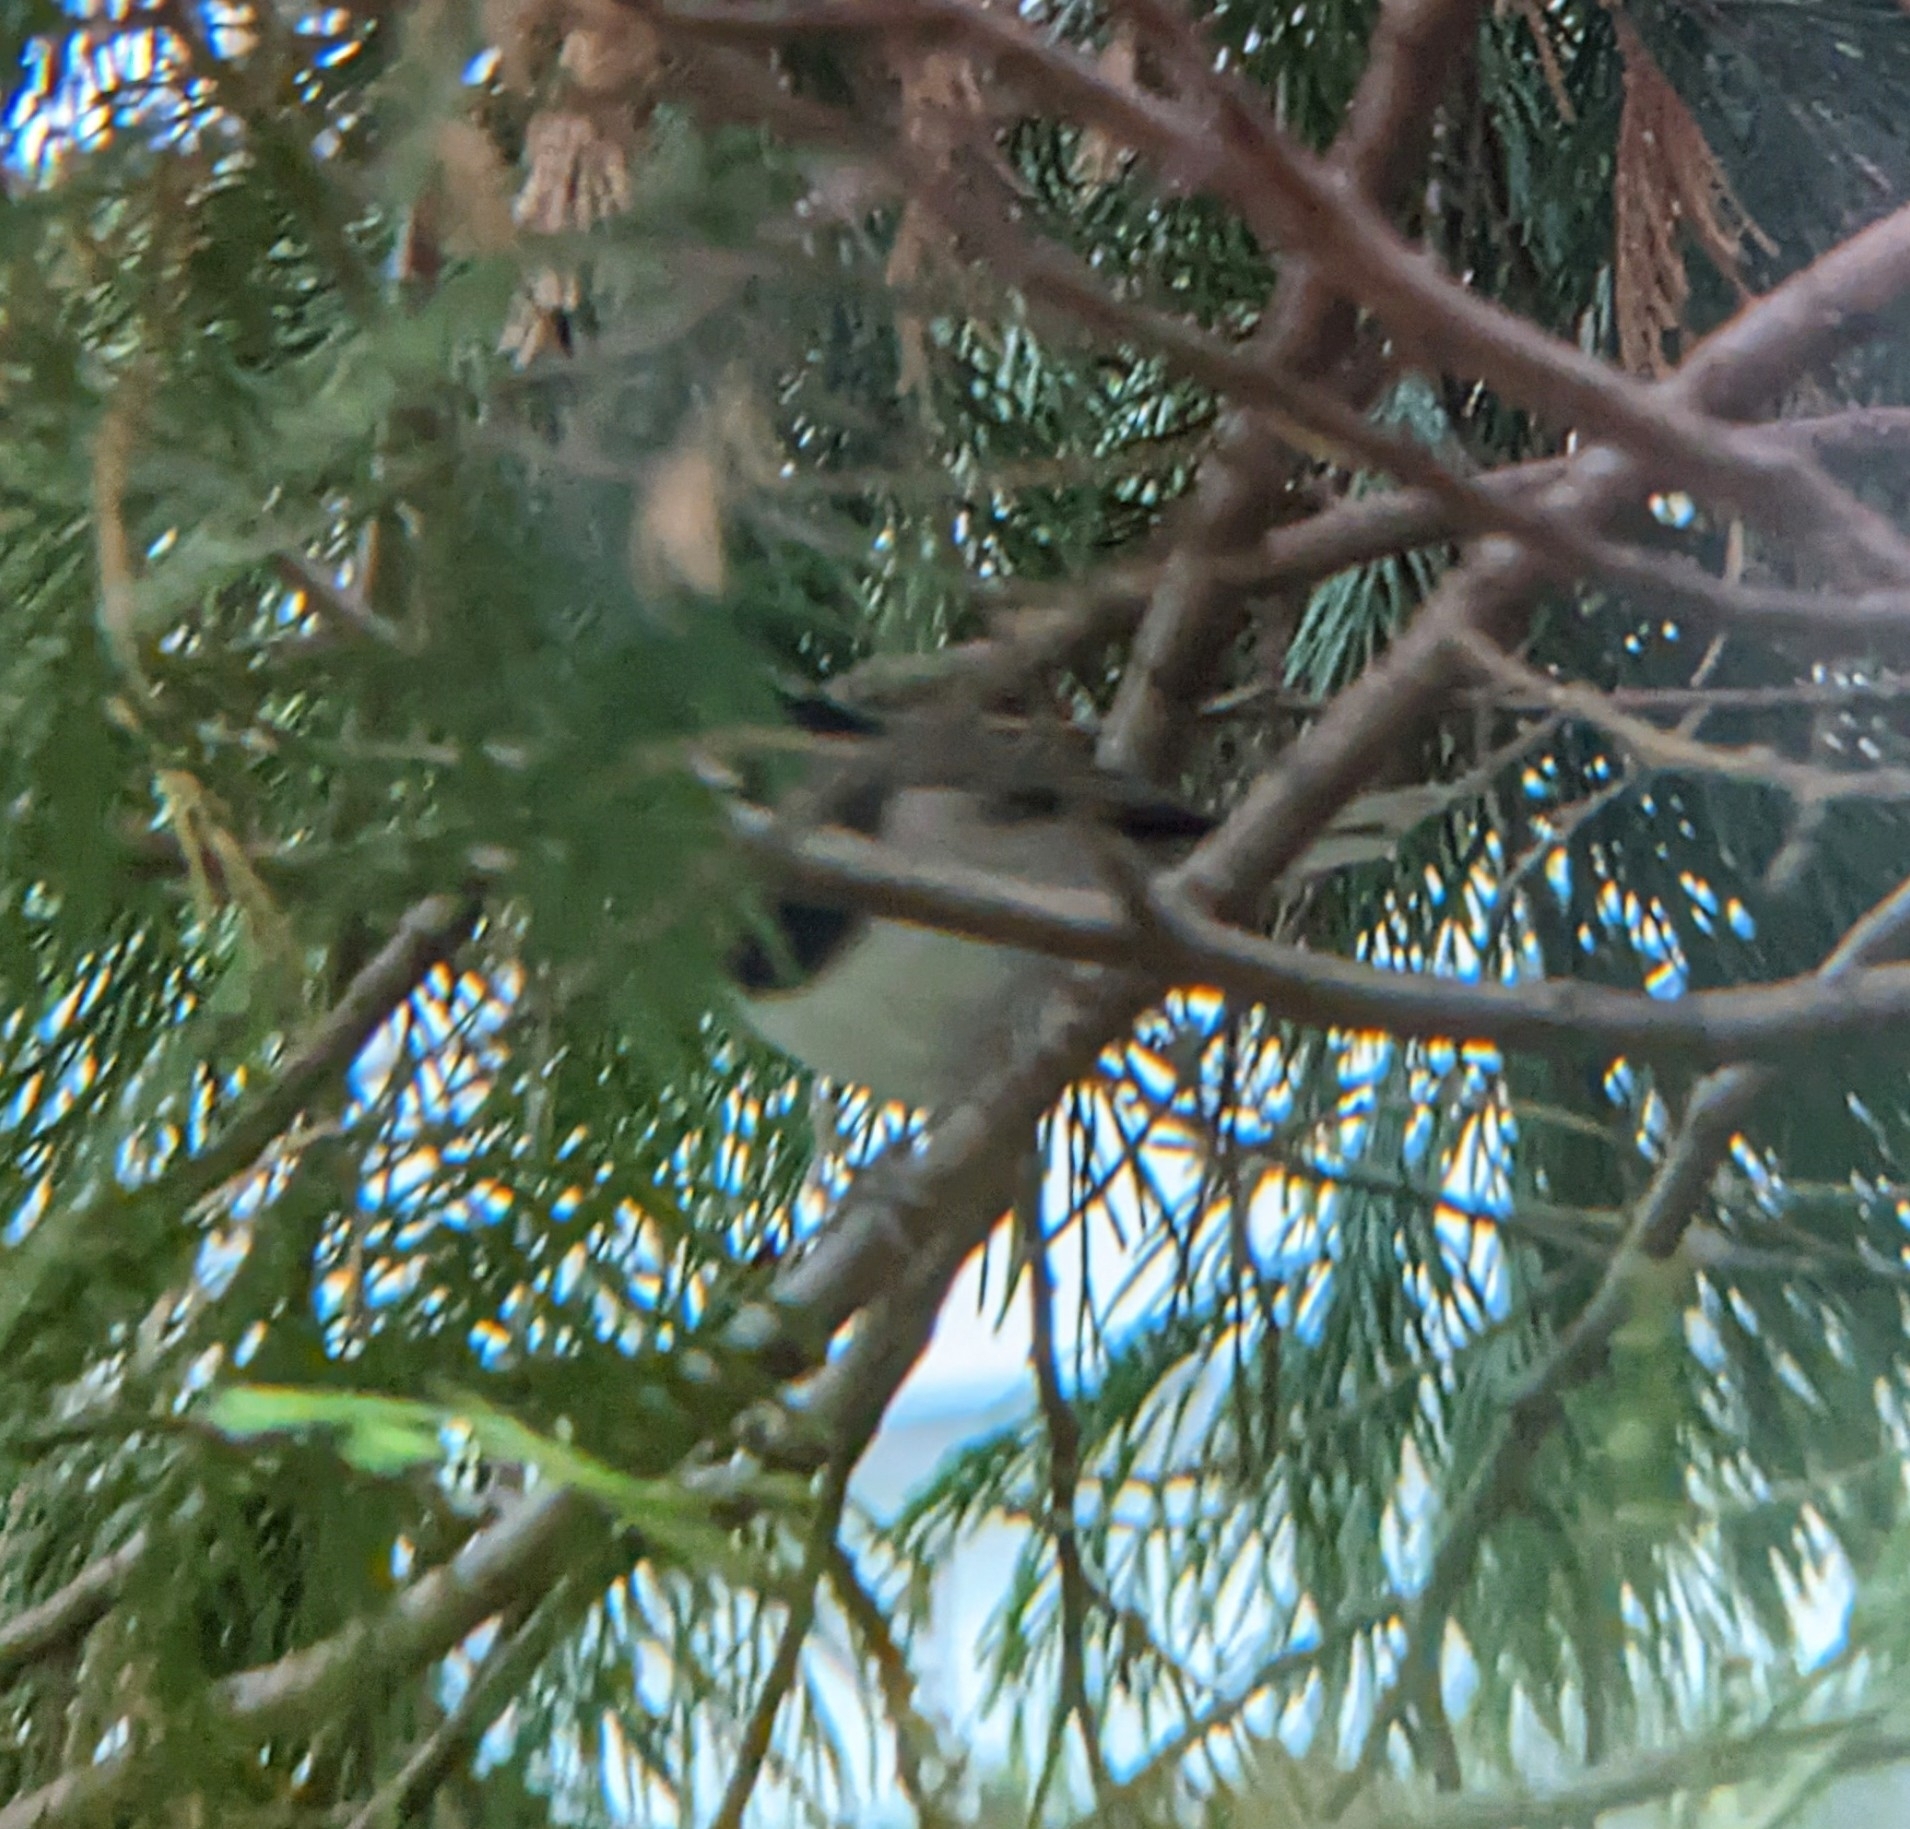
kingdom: Animalia
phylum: Chordata
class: Aves
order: Passeriformes
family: Passerellidae
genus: Junco
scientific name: Junco hyemalis
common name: Dark-eyed junco
